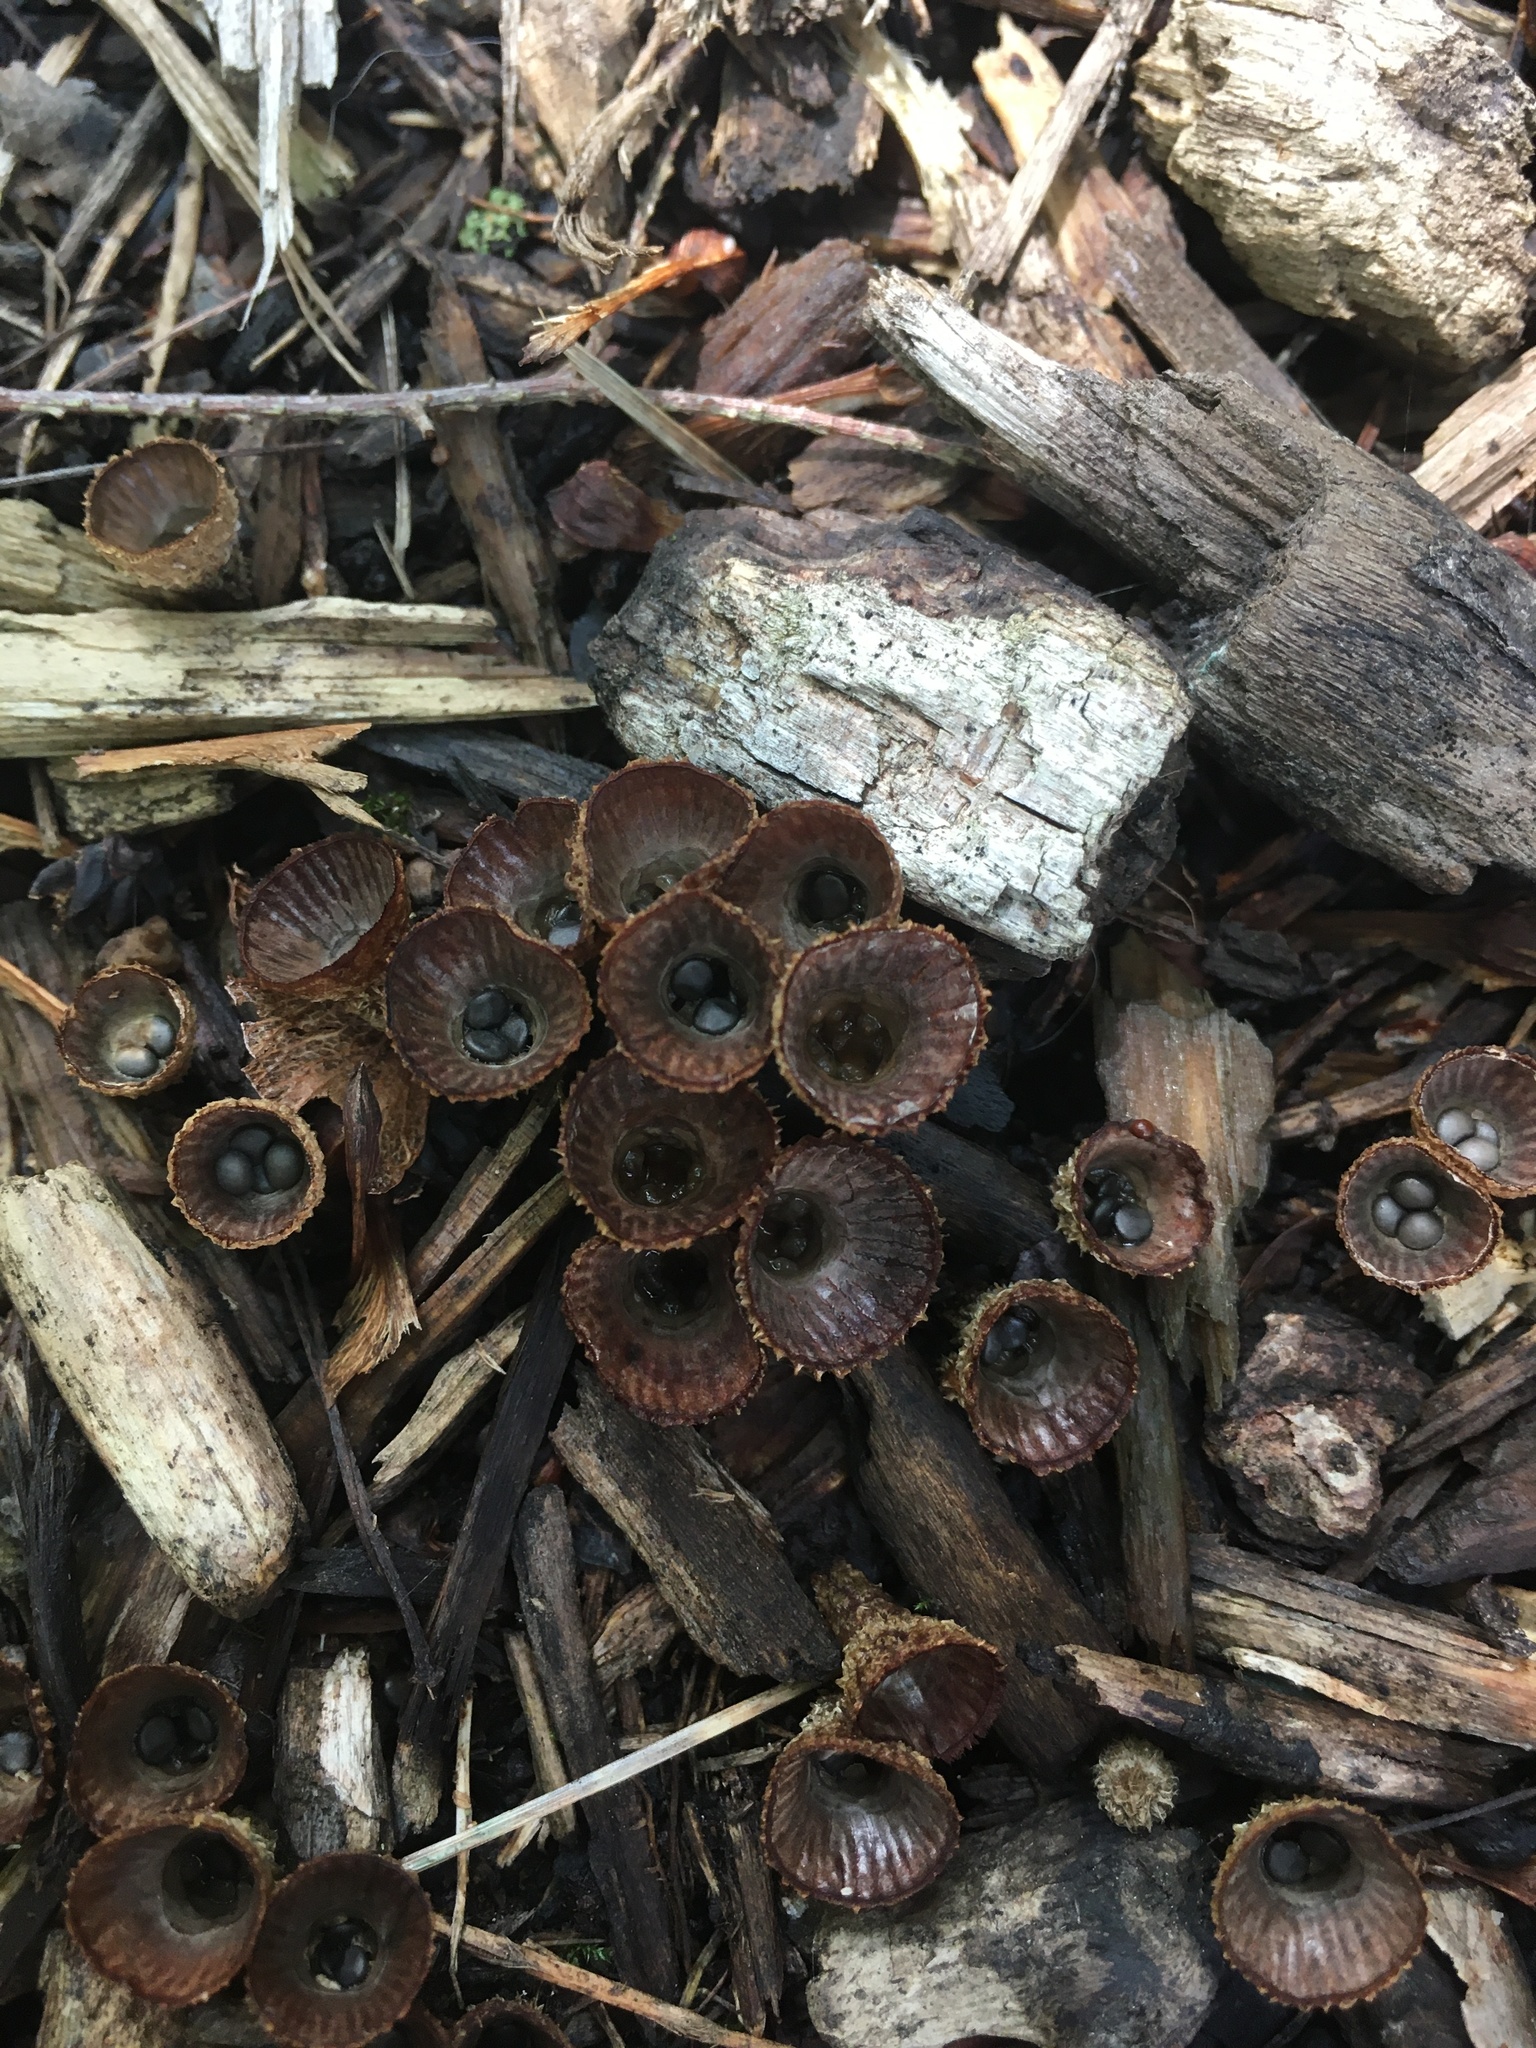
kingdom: Fungi
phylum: Basidiomycota
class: Agaricomycetes
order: Agaricales
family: Agaricaceae
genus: Cyathus
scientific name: Cyathus striatus
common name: Fluted bird's nest
